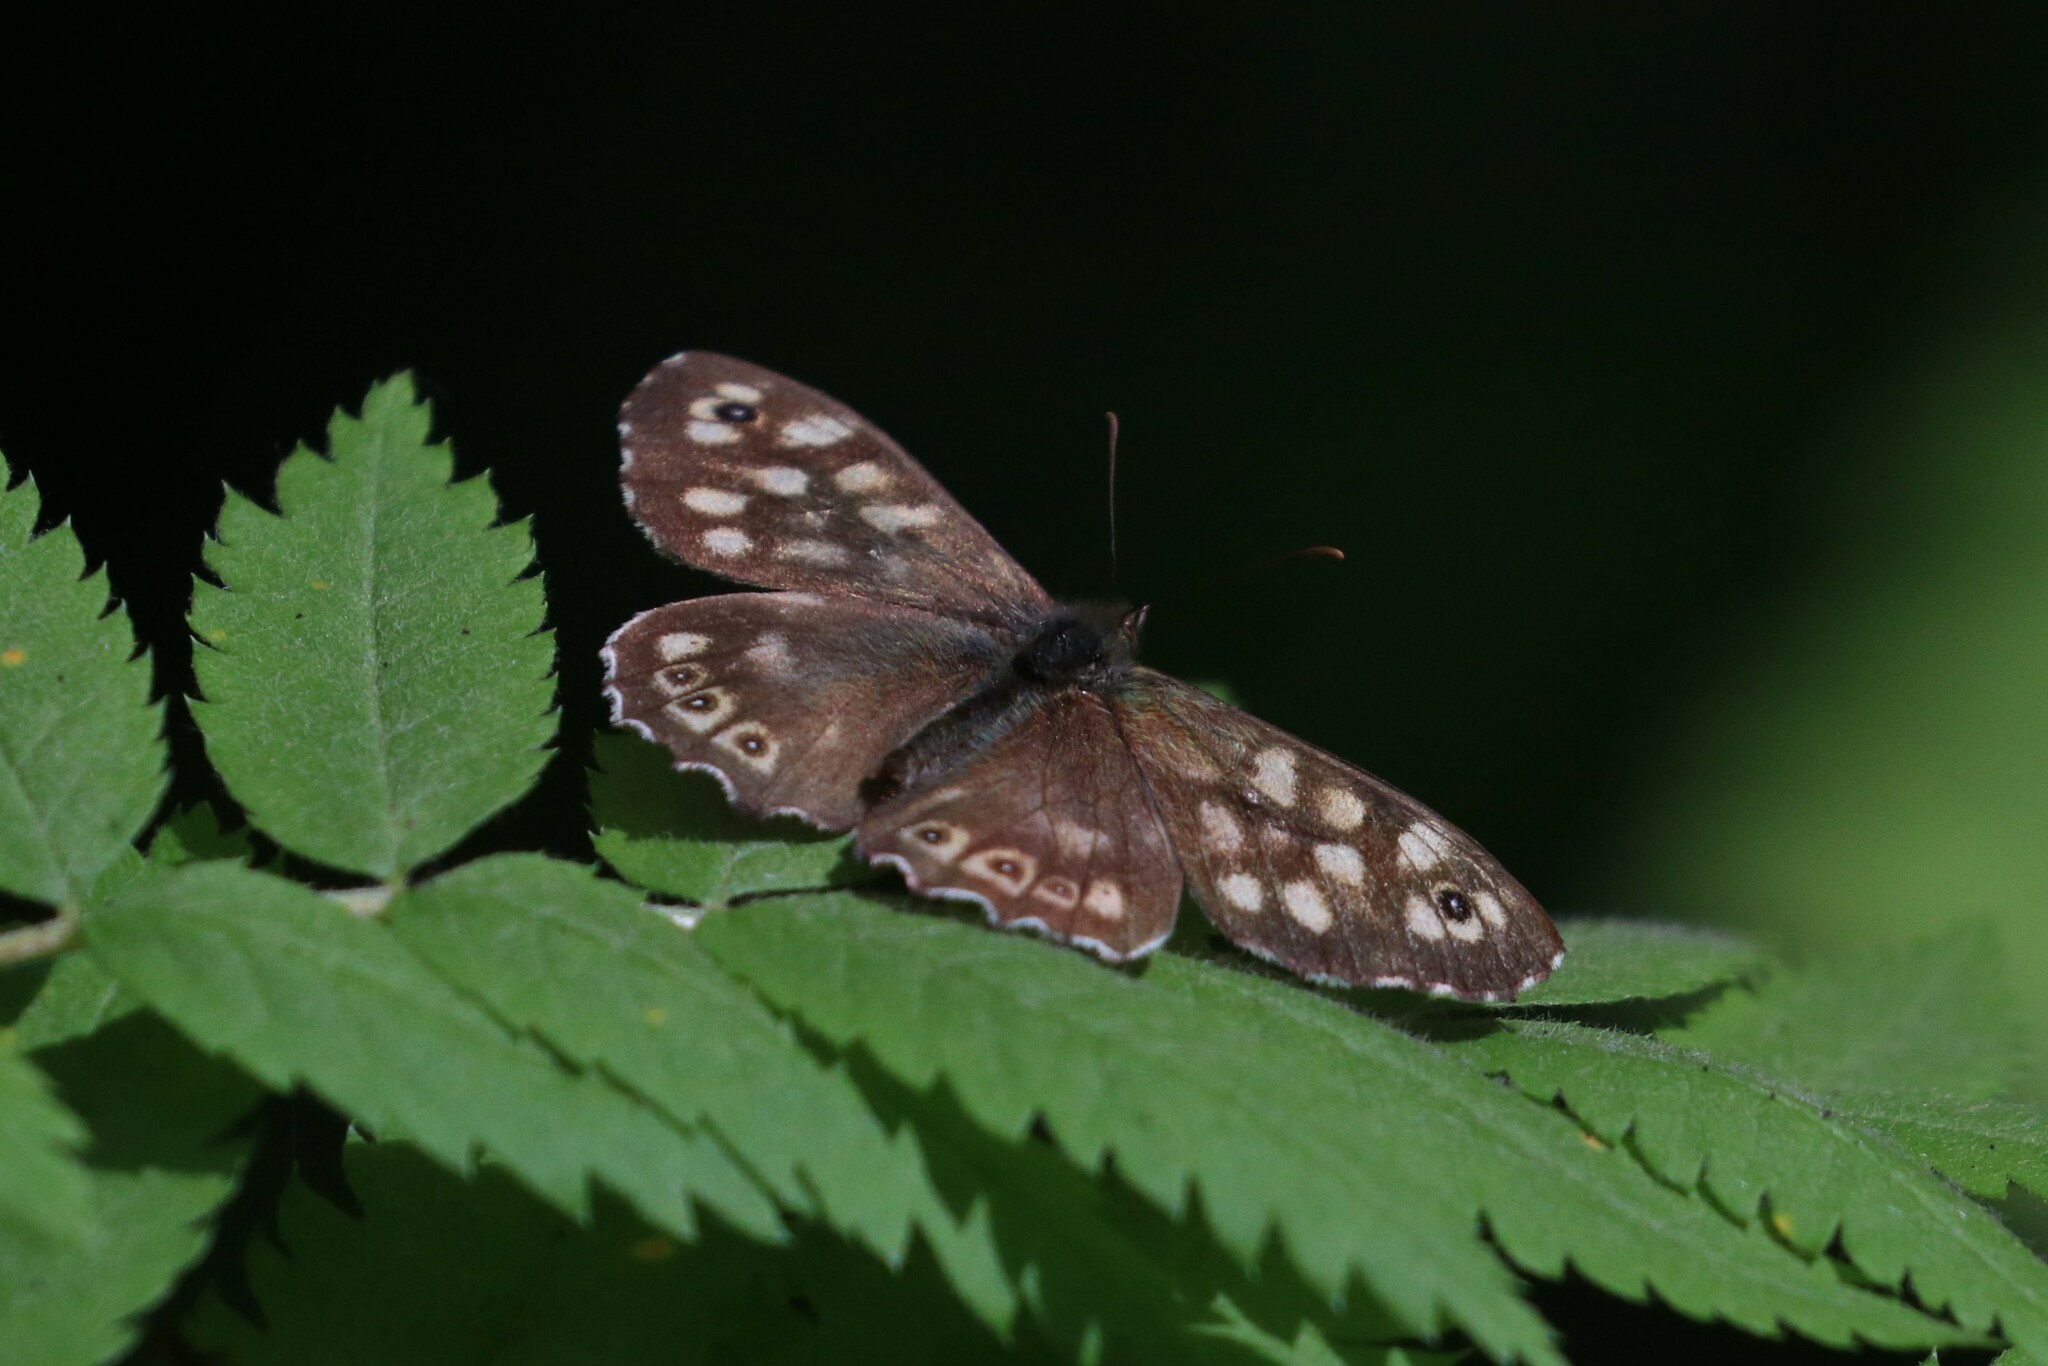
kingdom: Animalia
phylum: Arthropoda
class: Insecta
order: Lepidoptera
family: Nymphalidae
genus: Pararge
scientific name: Pararge aegeria
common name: Speckled wood
